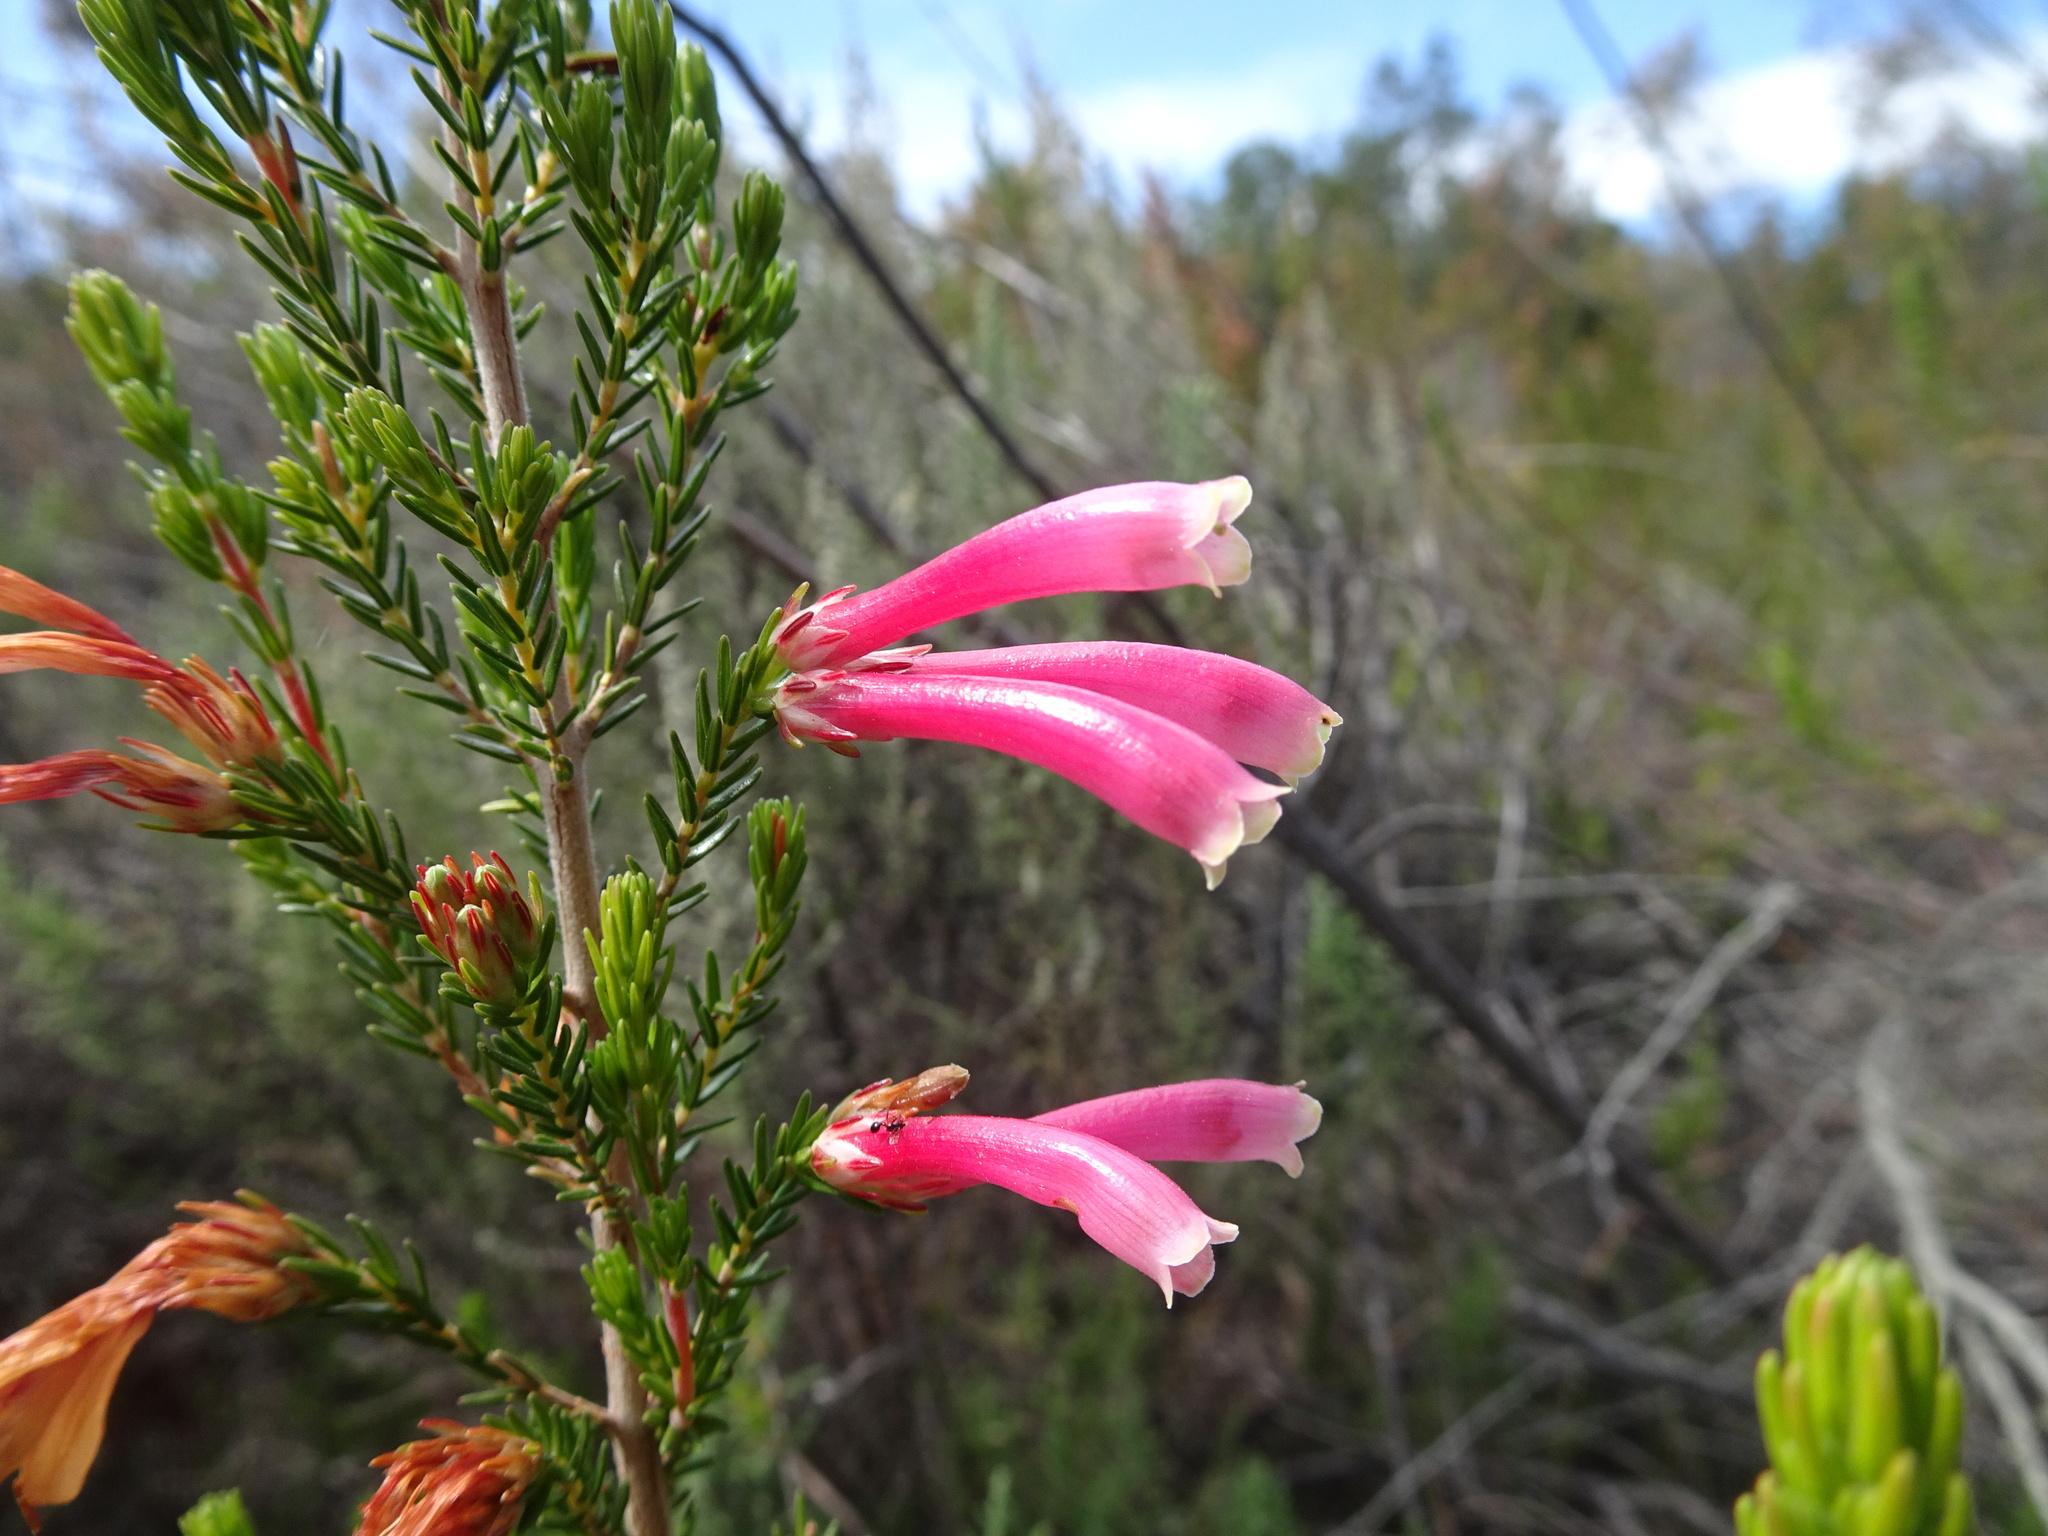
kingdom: Plantae
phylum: Tracheophyta
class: Magnoliopsida
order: Ericales
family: Ericaceae
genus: Erica
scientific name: Erica discolor
